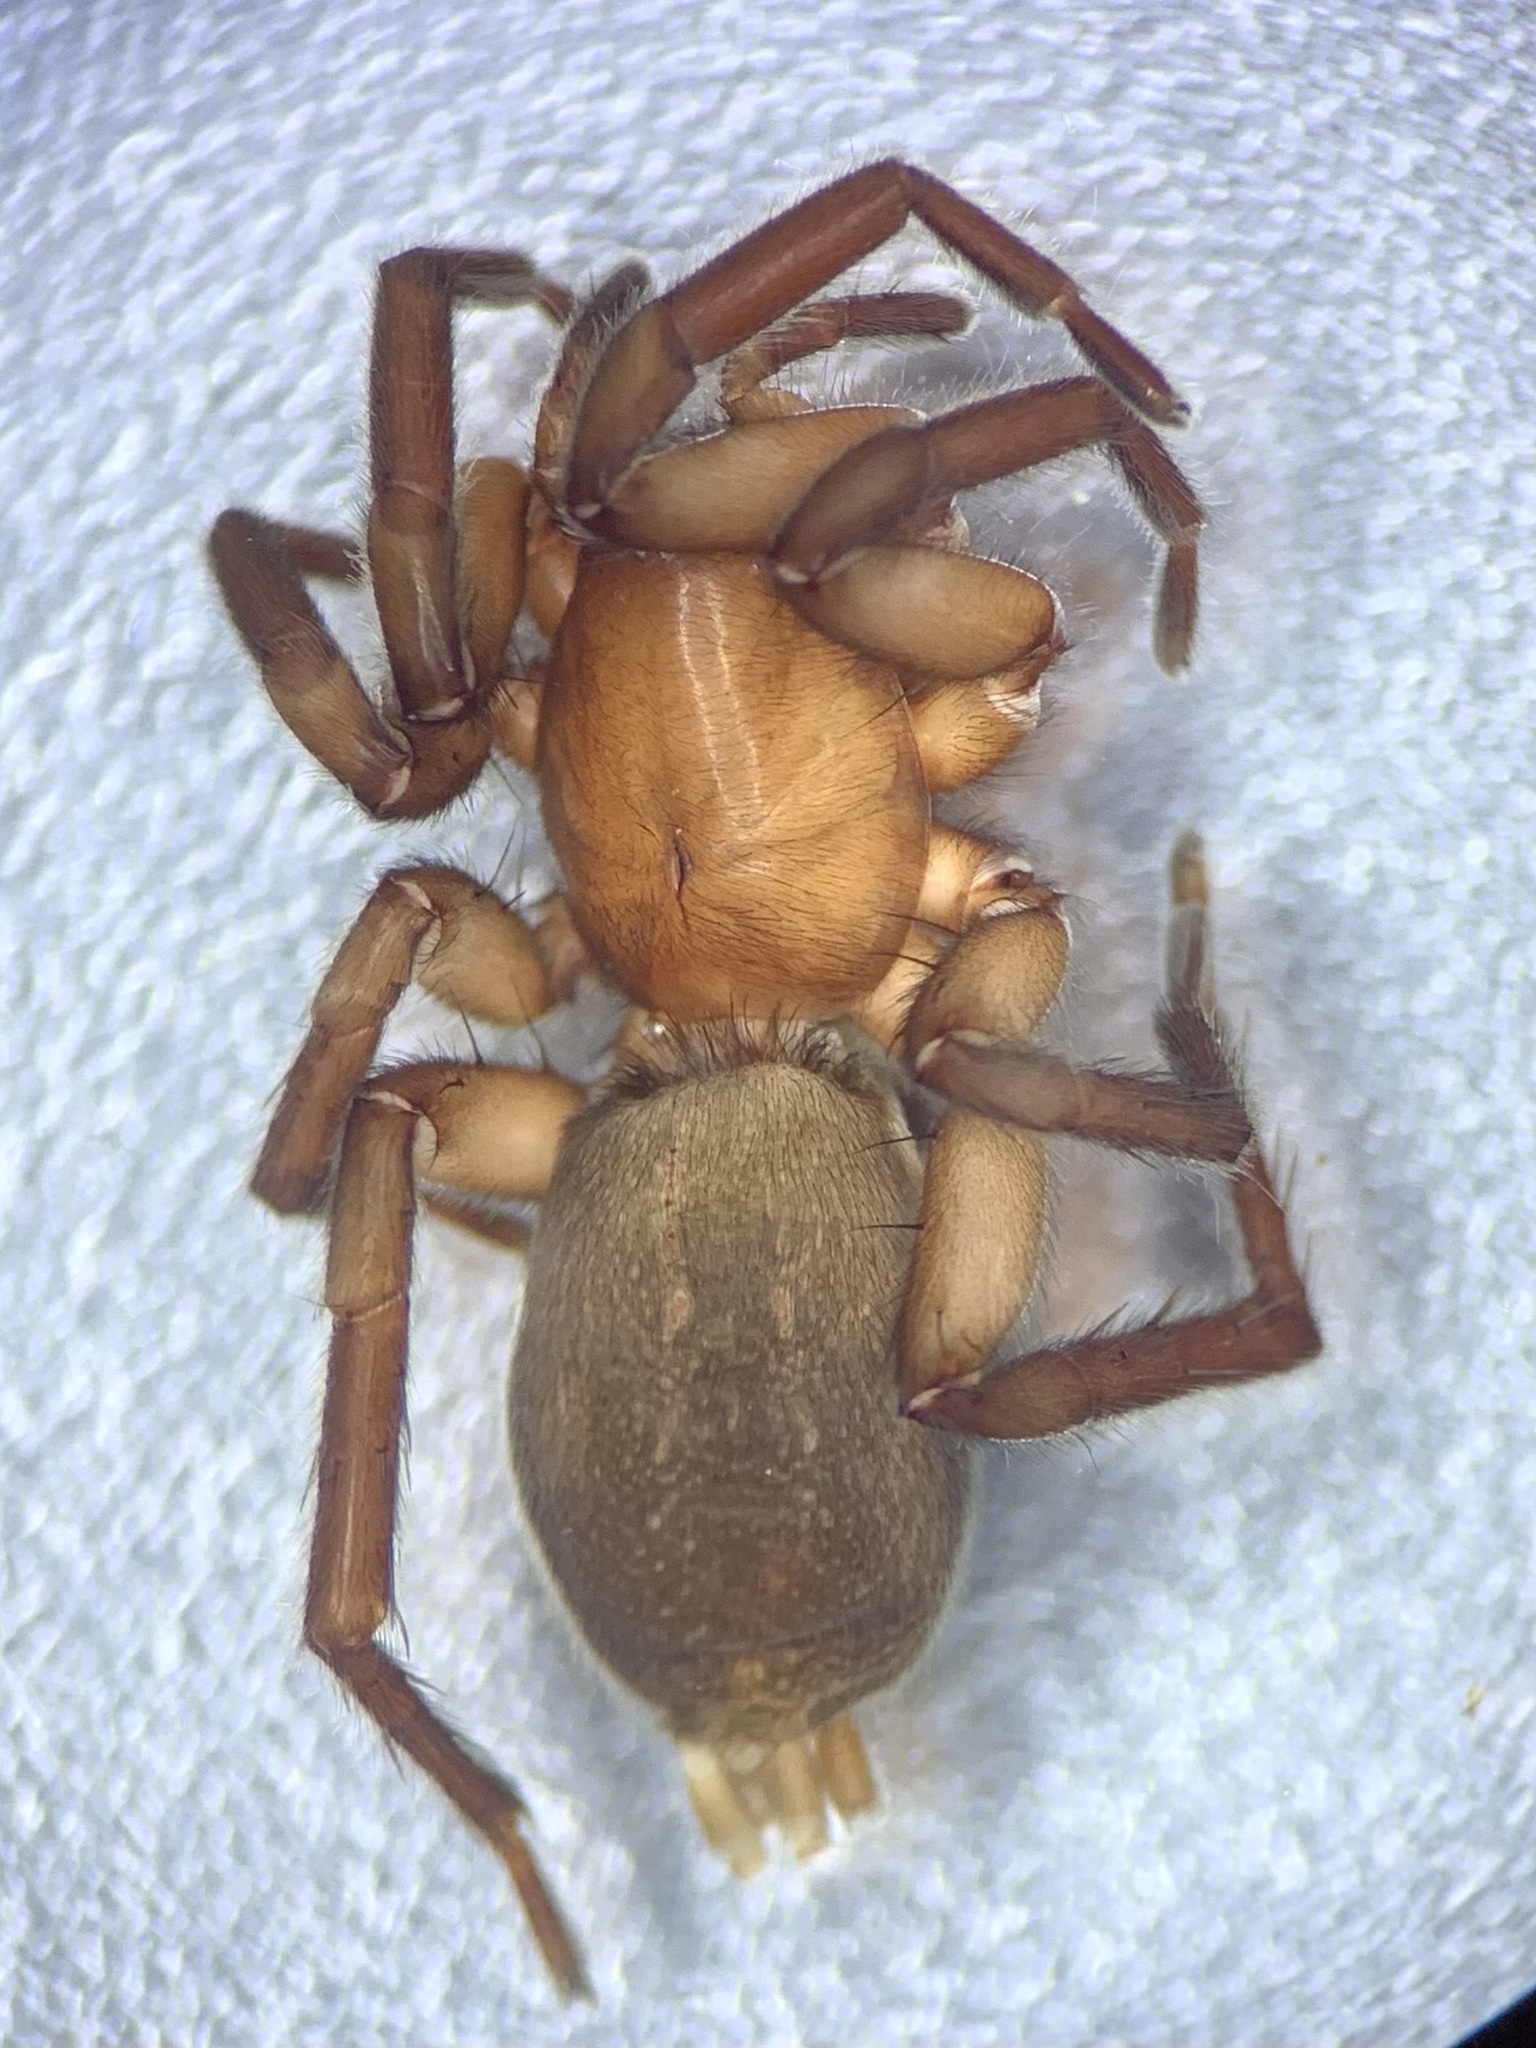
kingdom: Animalia
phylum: Arthropoda
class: Arachnida
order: Araneae
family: Gnaphosidae
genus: Haplodrassus
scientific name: Haplodrassus silvestris
